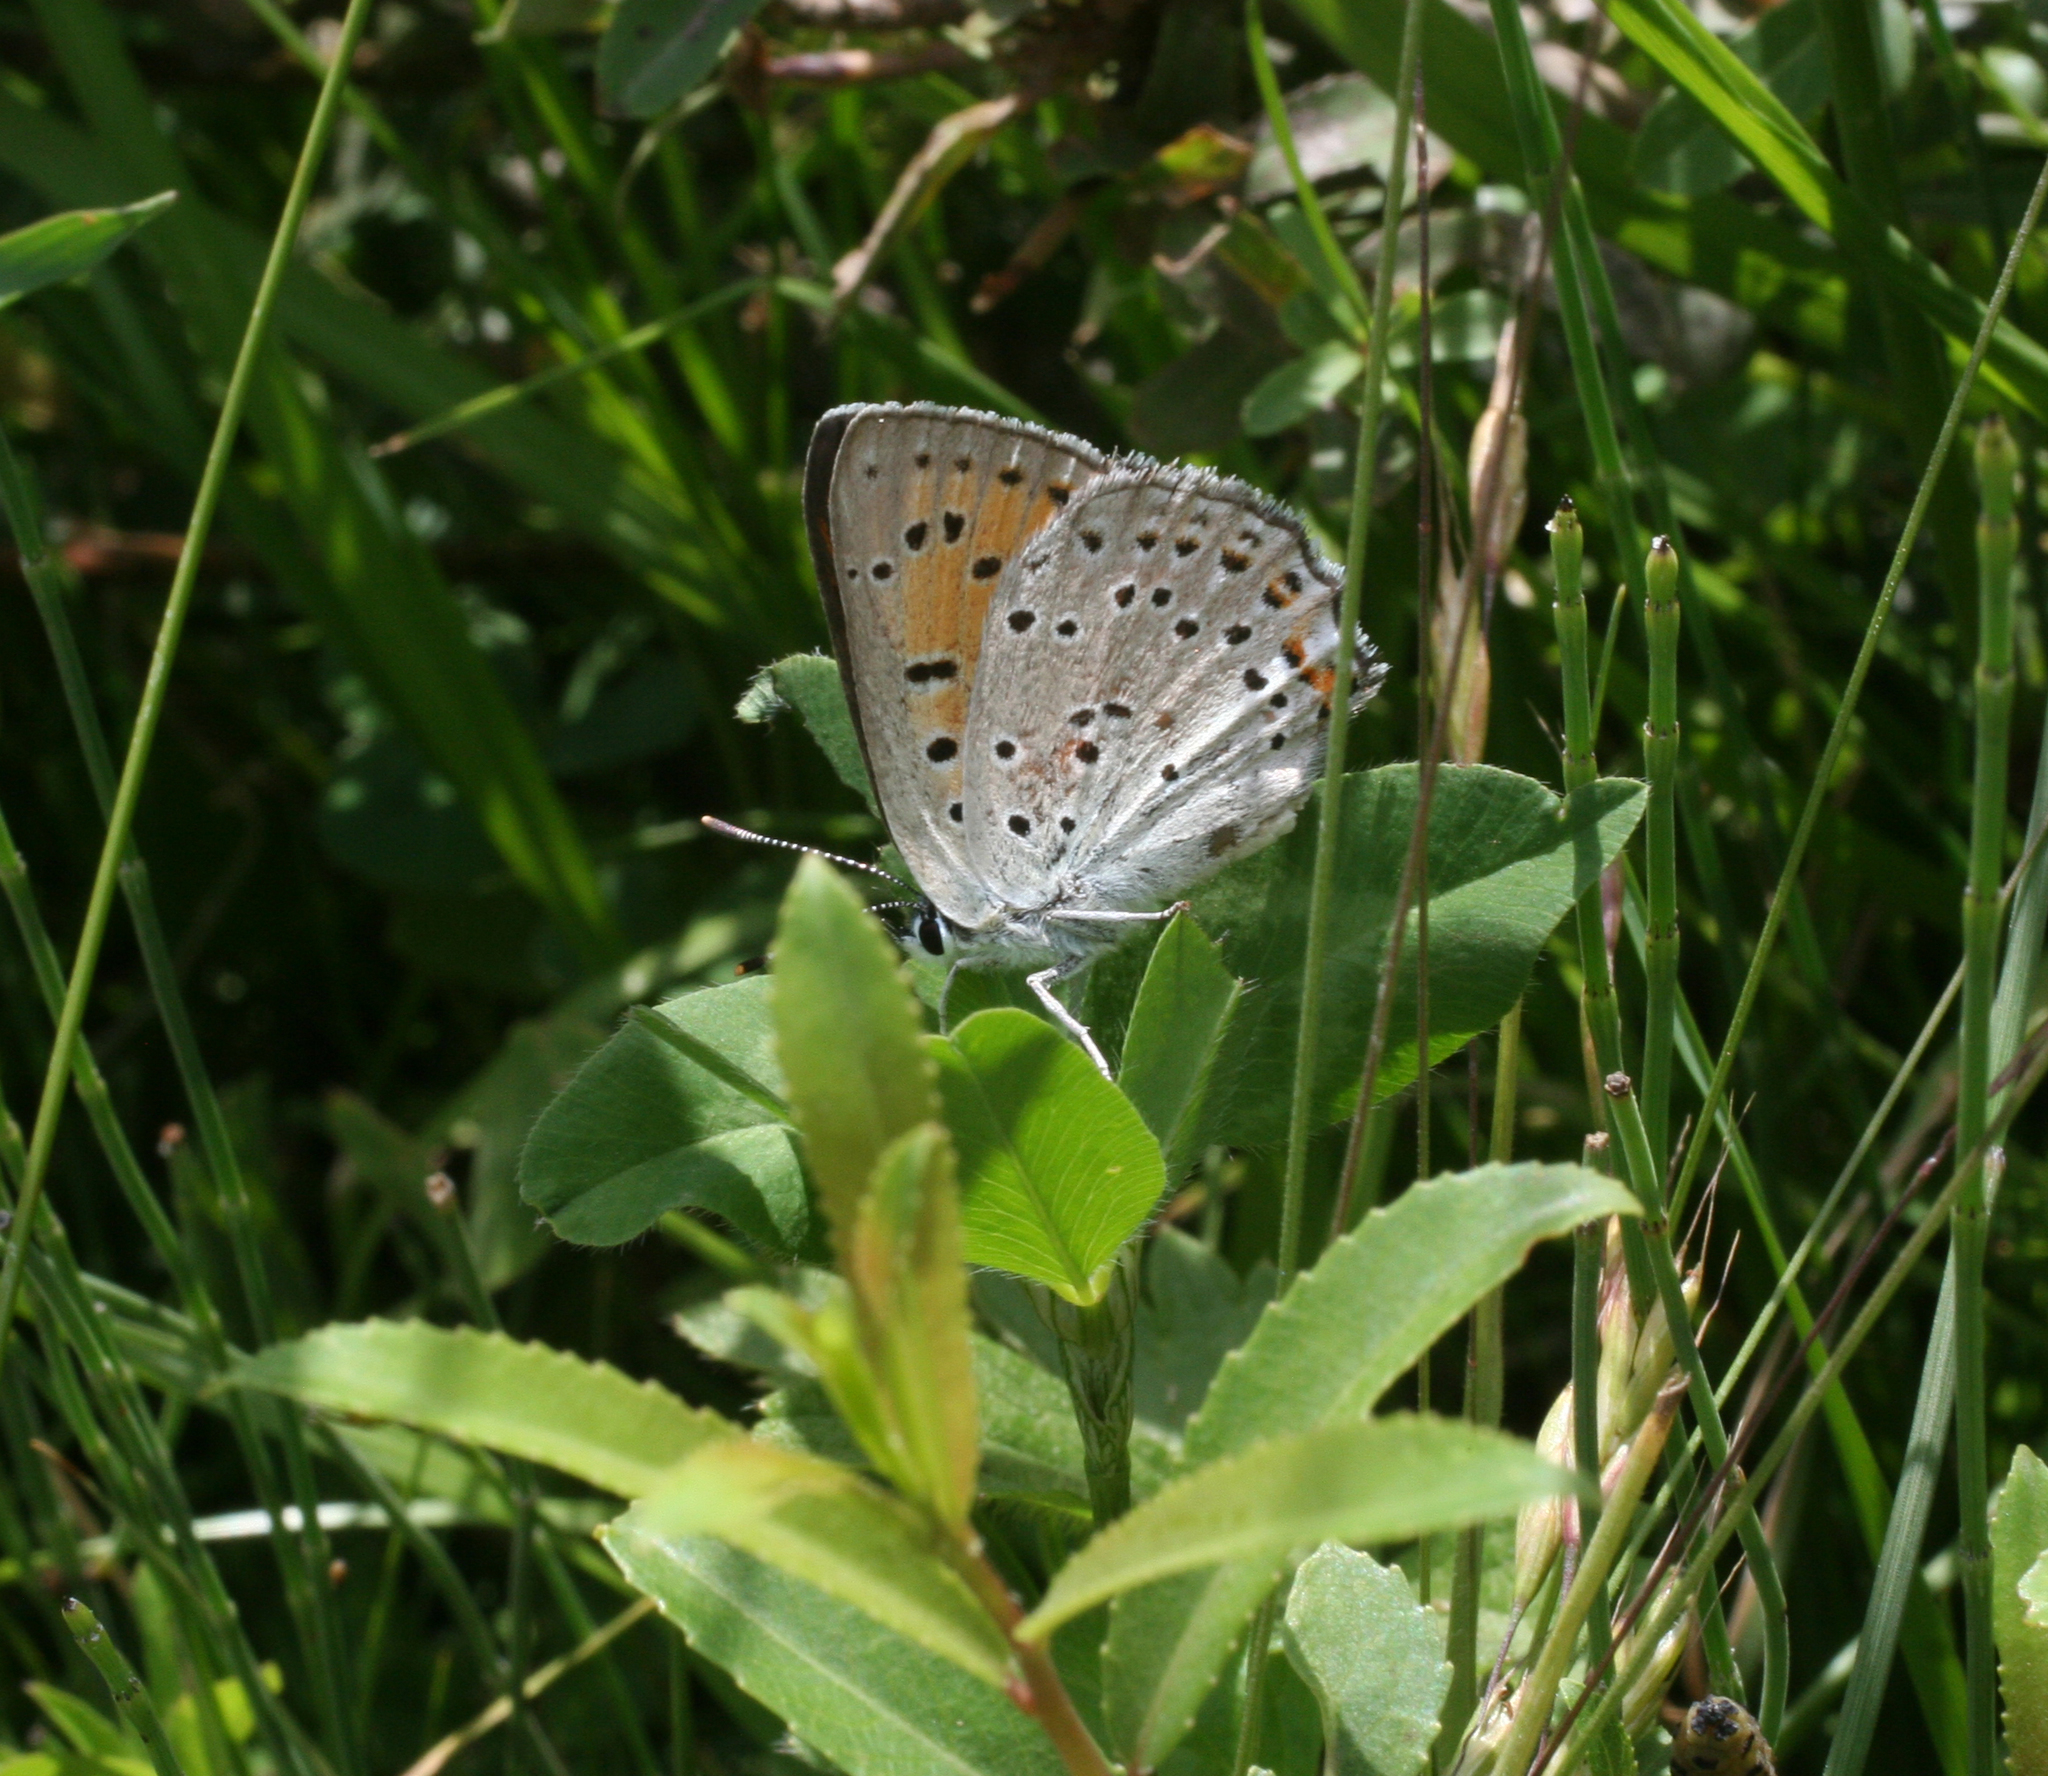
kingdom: Animalia
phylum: Arthropoda
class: Insecta
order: Lepidoptera
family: Lycaenidae
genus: Lycaena
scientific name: Lycaena alciphron
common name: Purple-shot copper
